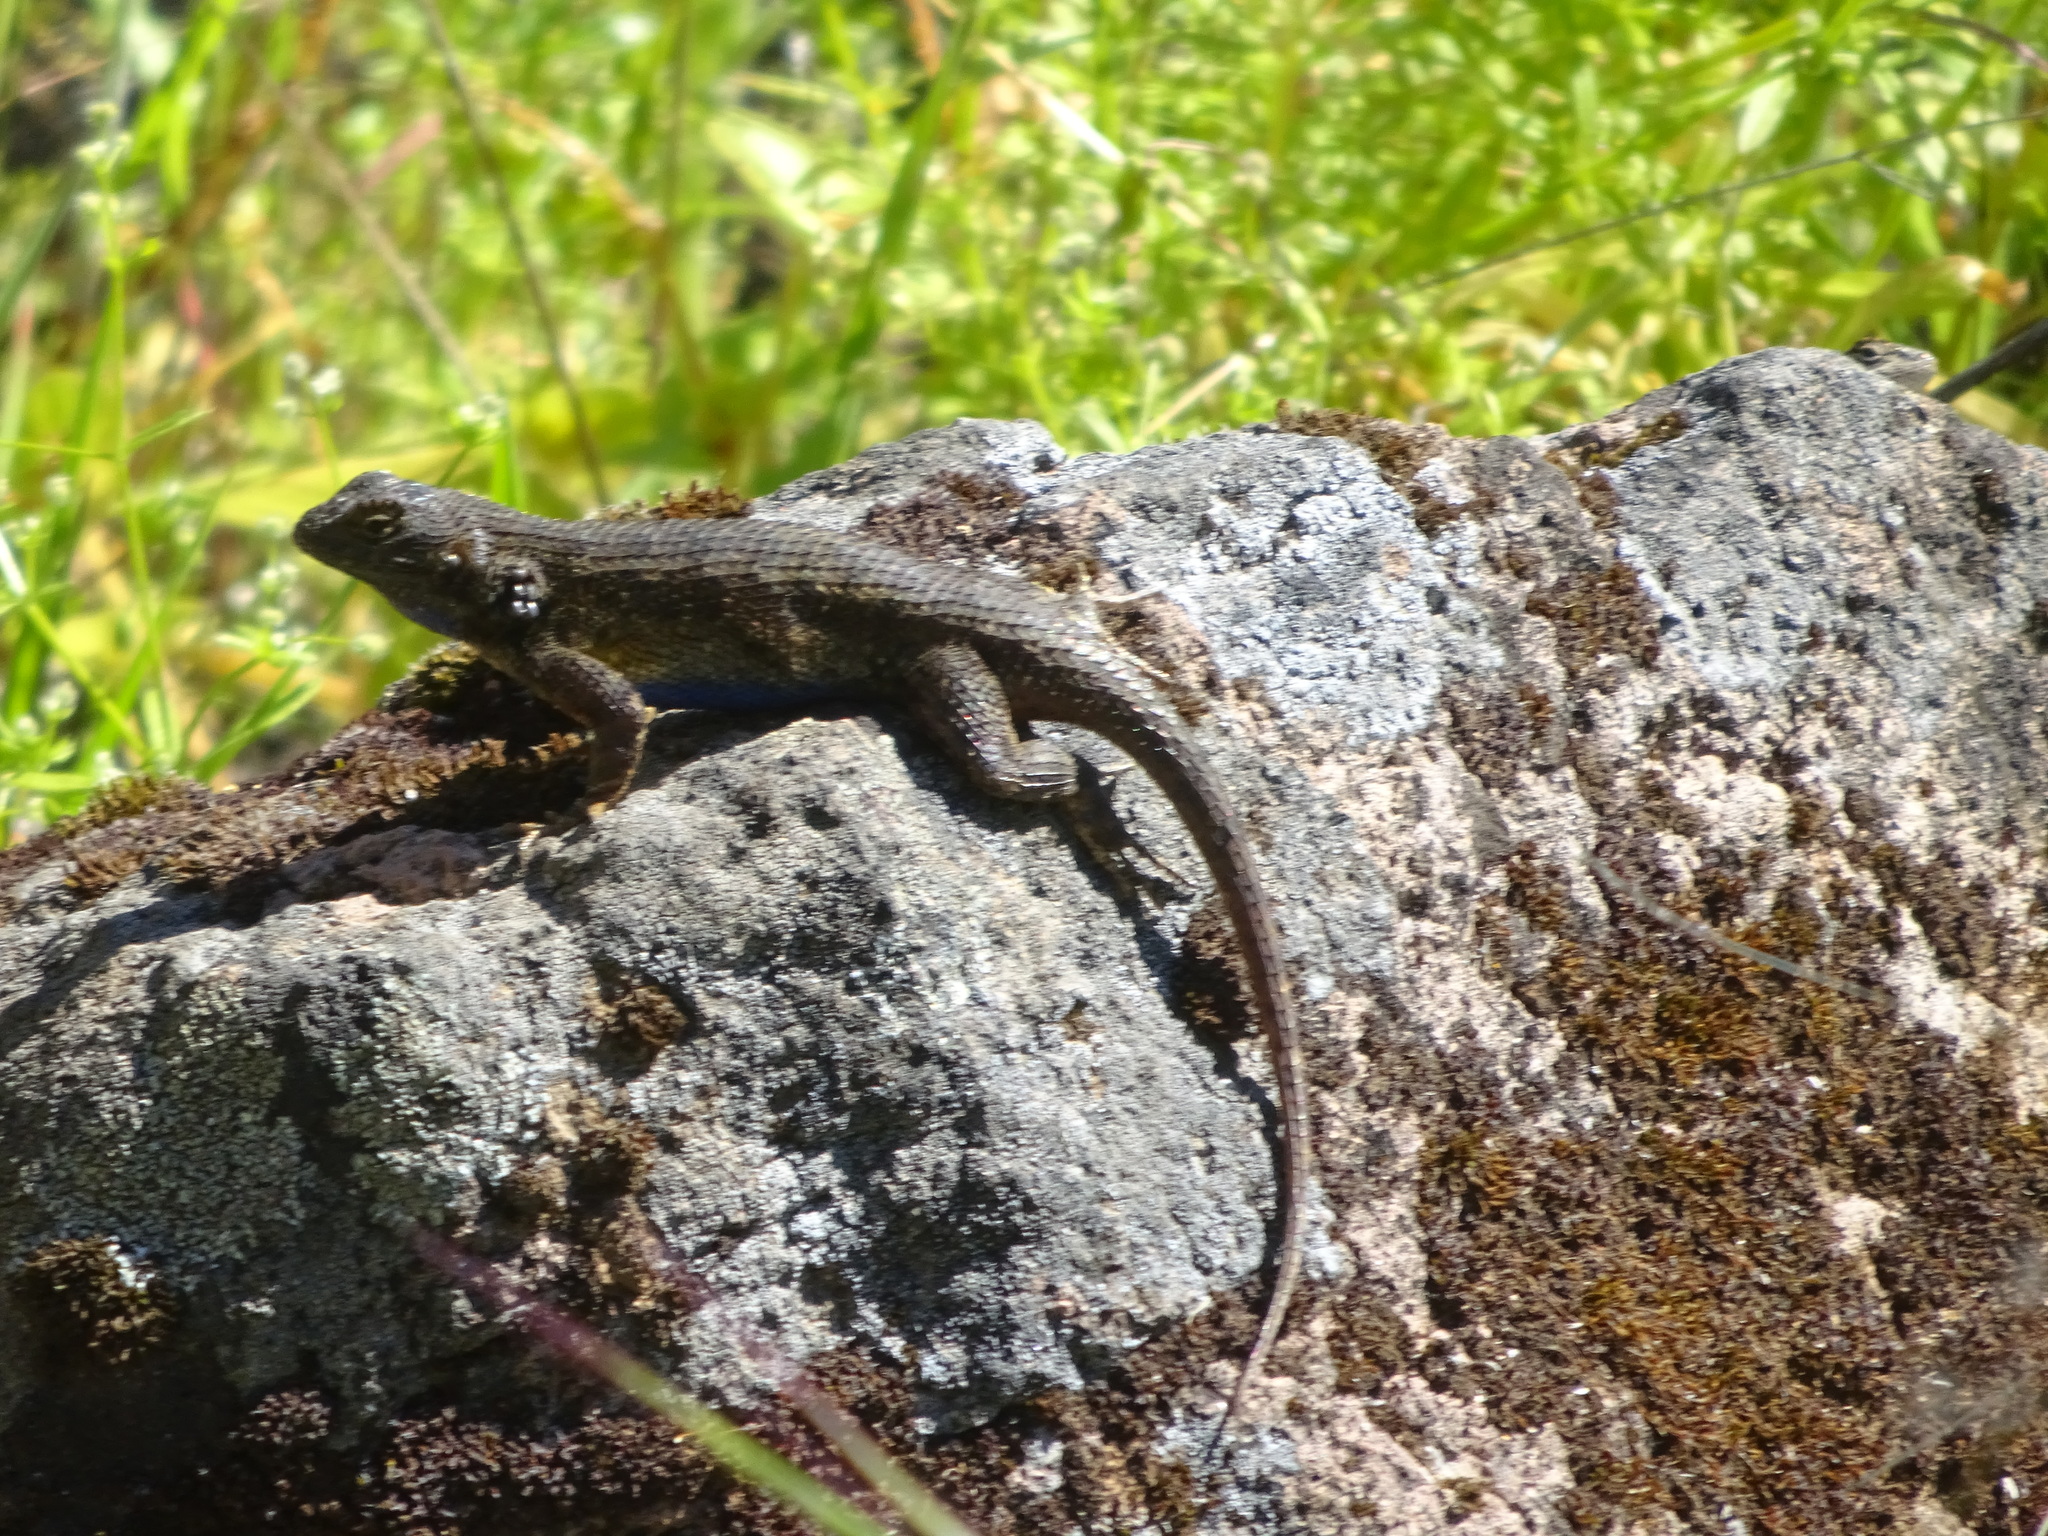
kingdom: Animalia
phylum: Chordata
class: Squamata
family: Phrynosomatidae
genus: Sceloporus
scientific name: Sceloporus occidentalis
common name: Western fence lizard
